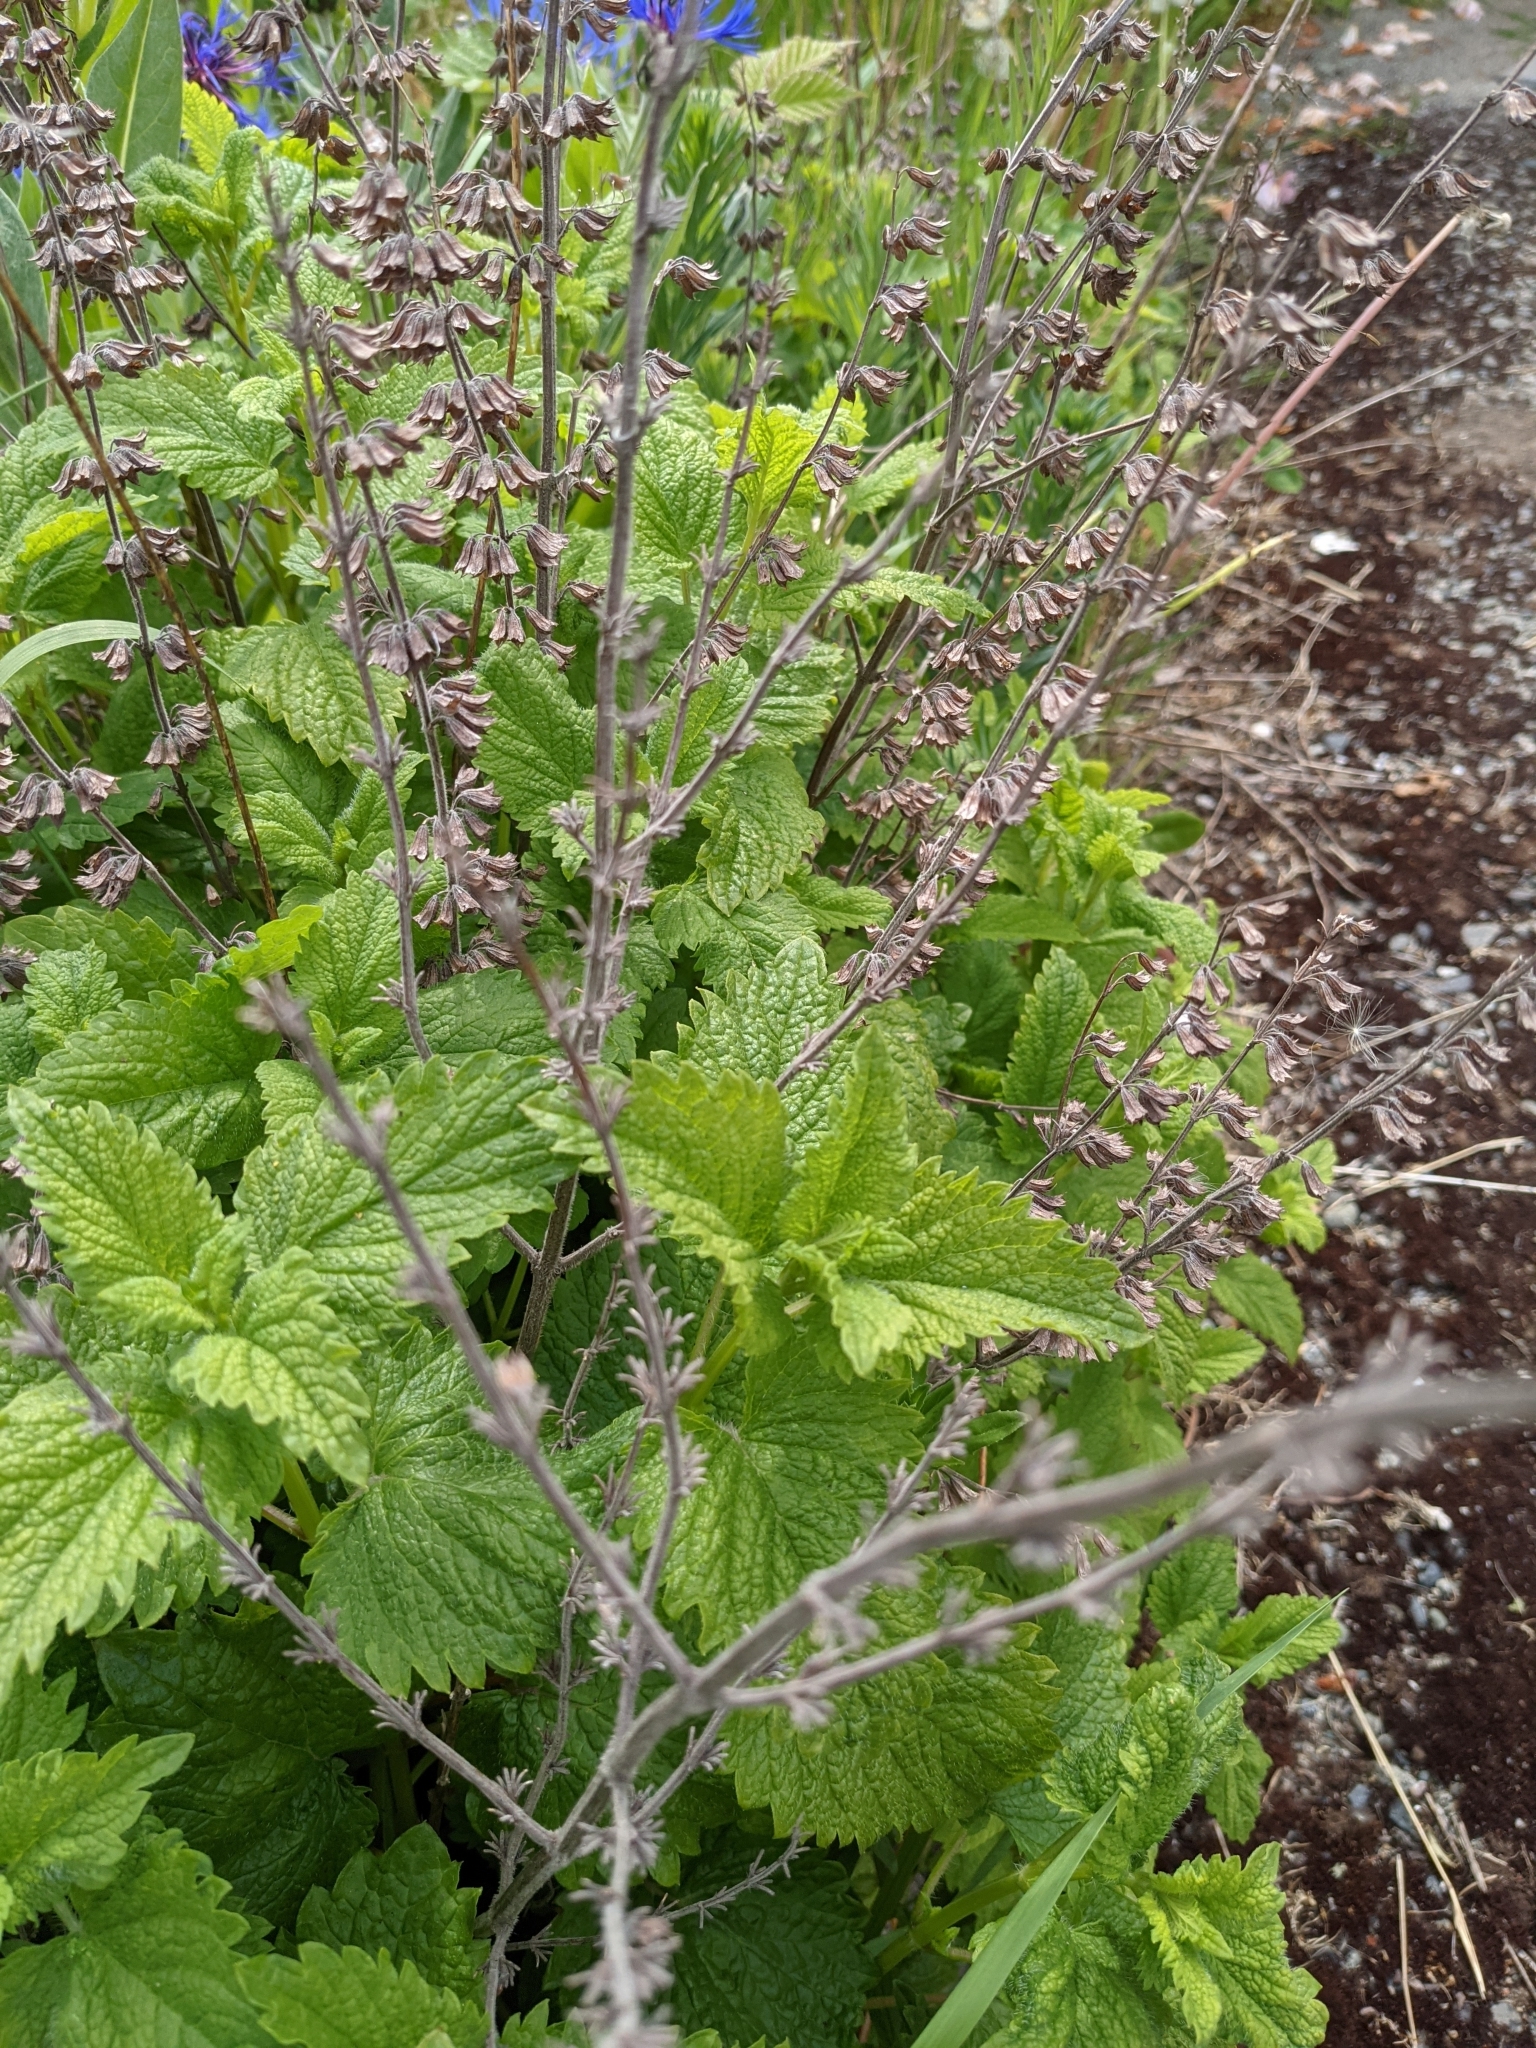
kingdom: Plantae
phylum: Tracheophyta
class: Magnoliopsida
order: Lamiales
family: Lamiaceae
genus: Melissa
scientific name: Melissa officinalis
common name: Balm
